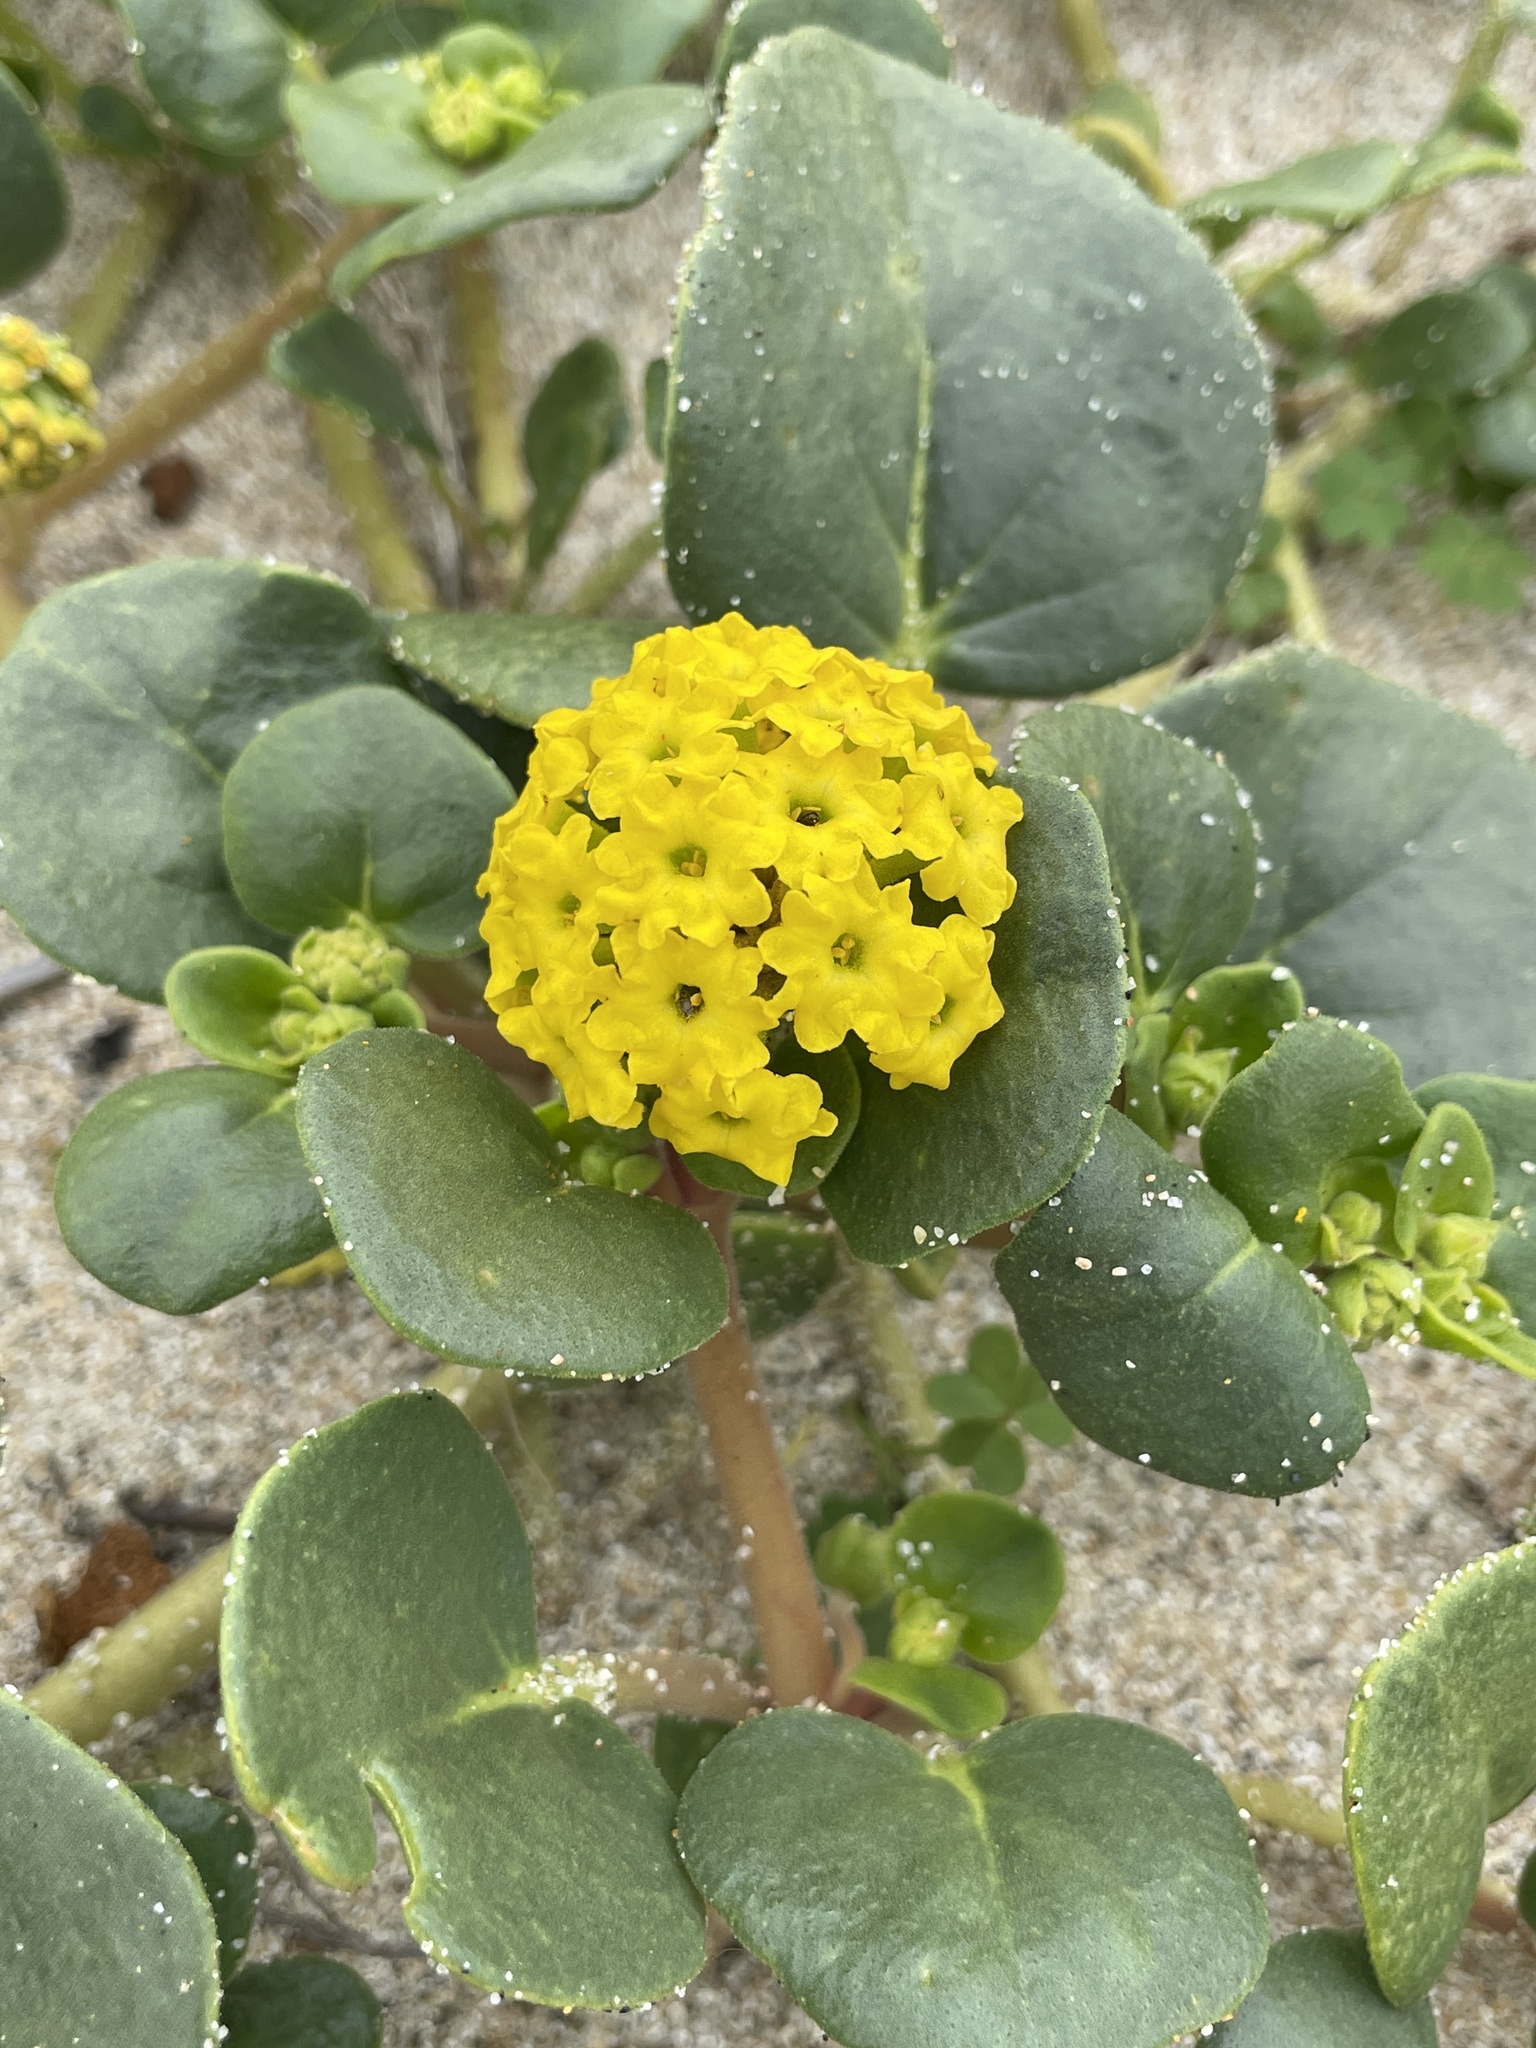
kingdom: Plantae
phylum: Tracheophyta
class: Magnoliopsida
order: Caryophyllales
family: Nyctaginaceae
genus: Abronia
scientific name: Abronia latifolia
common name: Yellow sand-verbena
